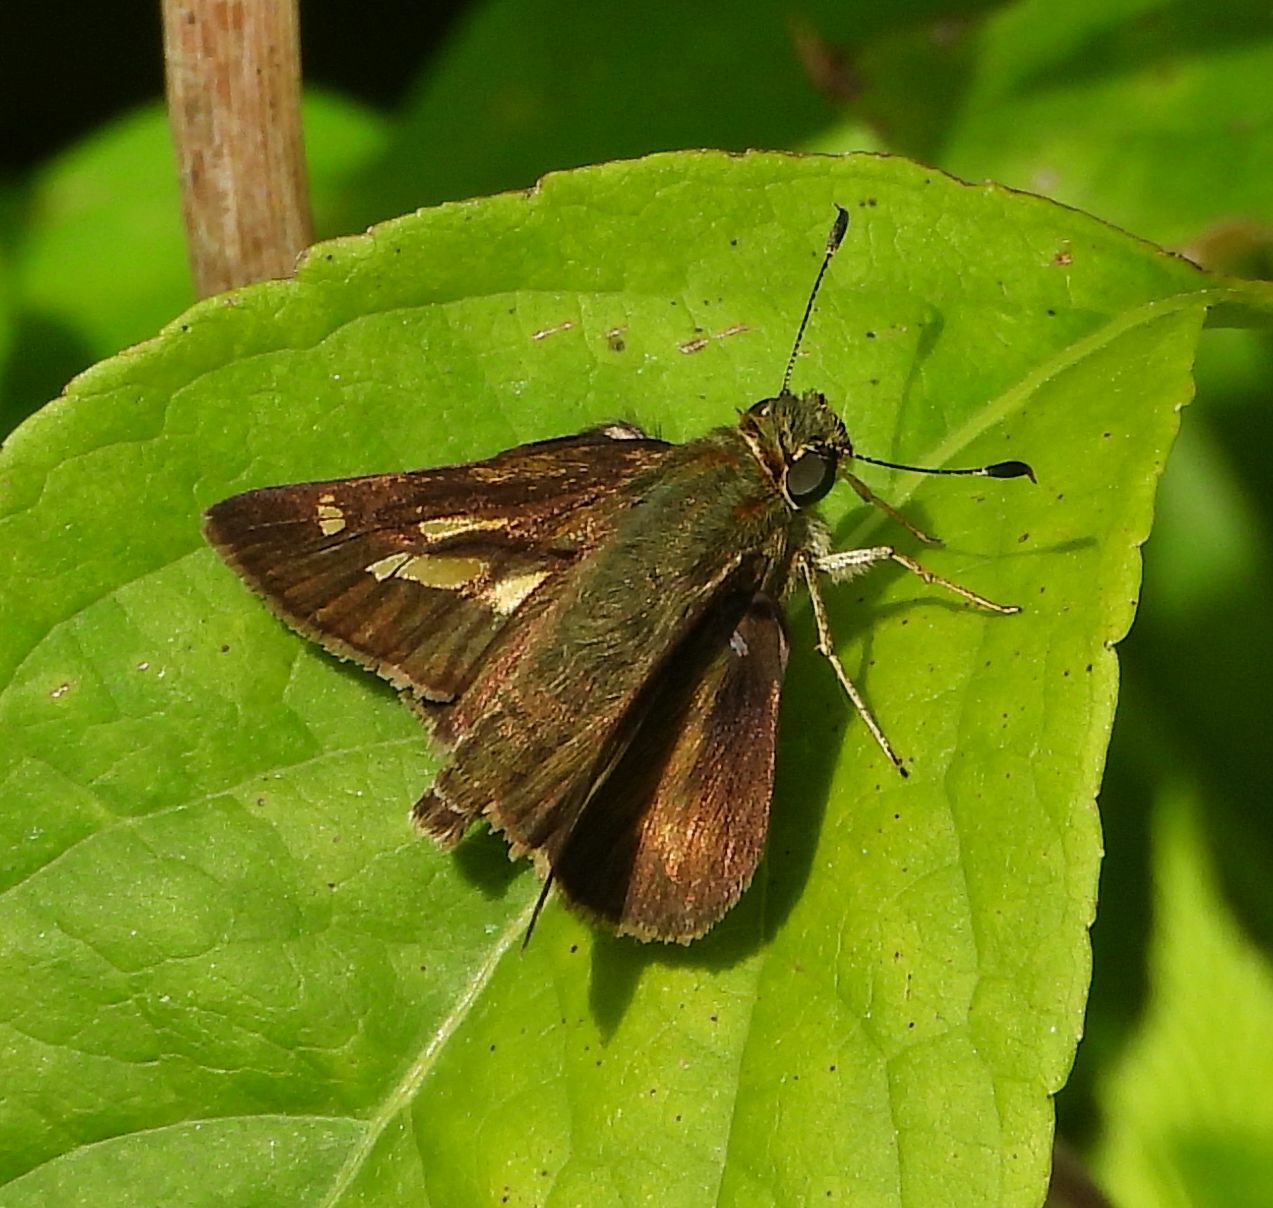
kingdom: Animalia
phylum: Arthropoda
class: Insecta
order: Lepidoptera
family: Hesperiidae
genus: Vernia
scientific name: Vernia verna
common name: Little glassywing
